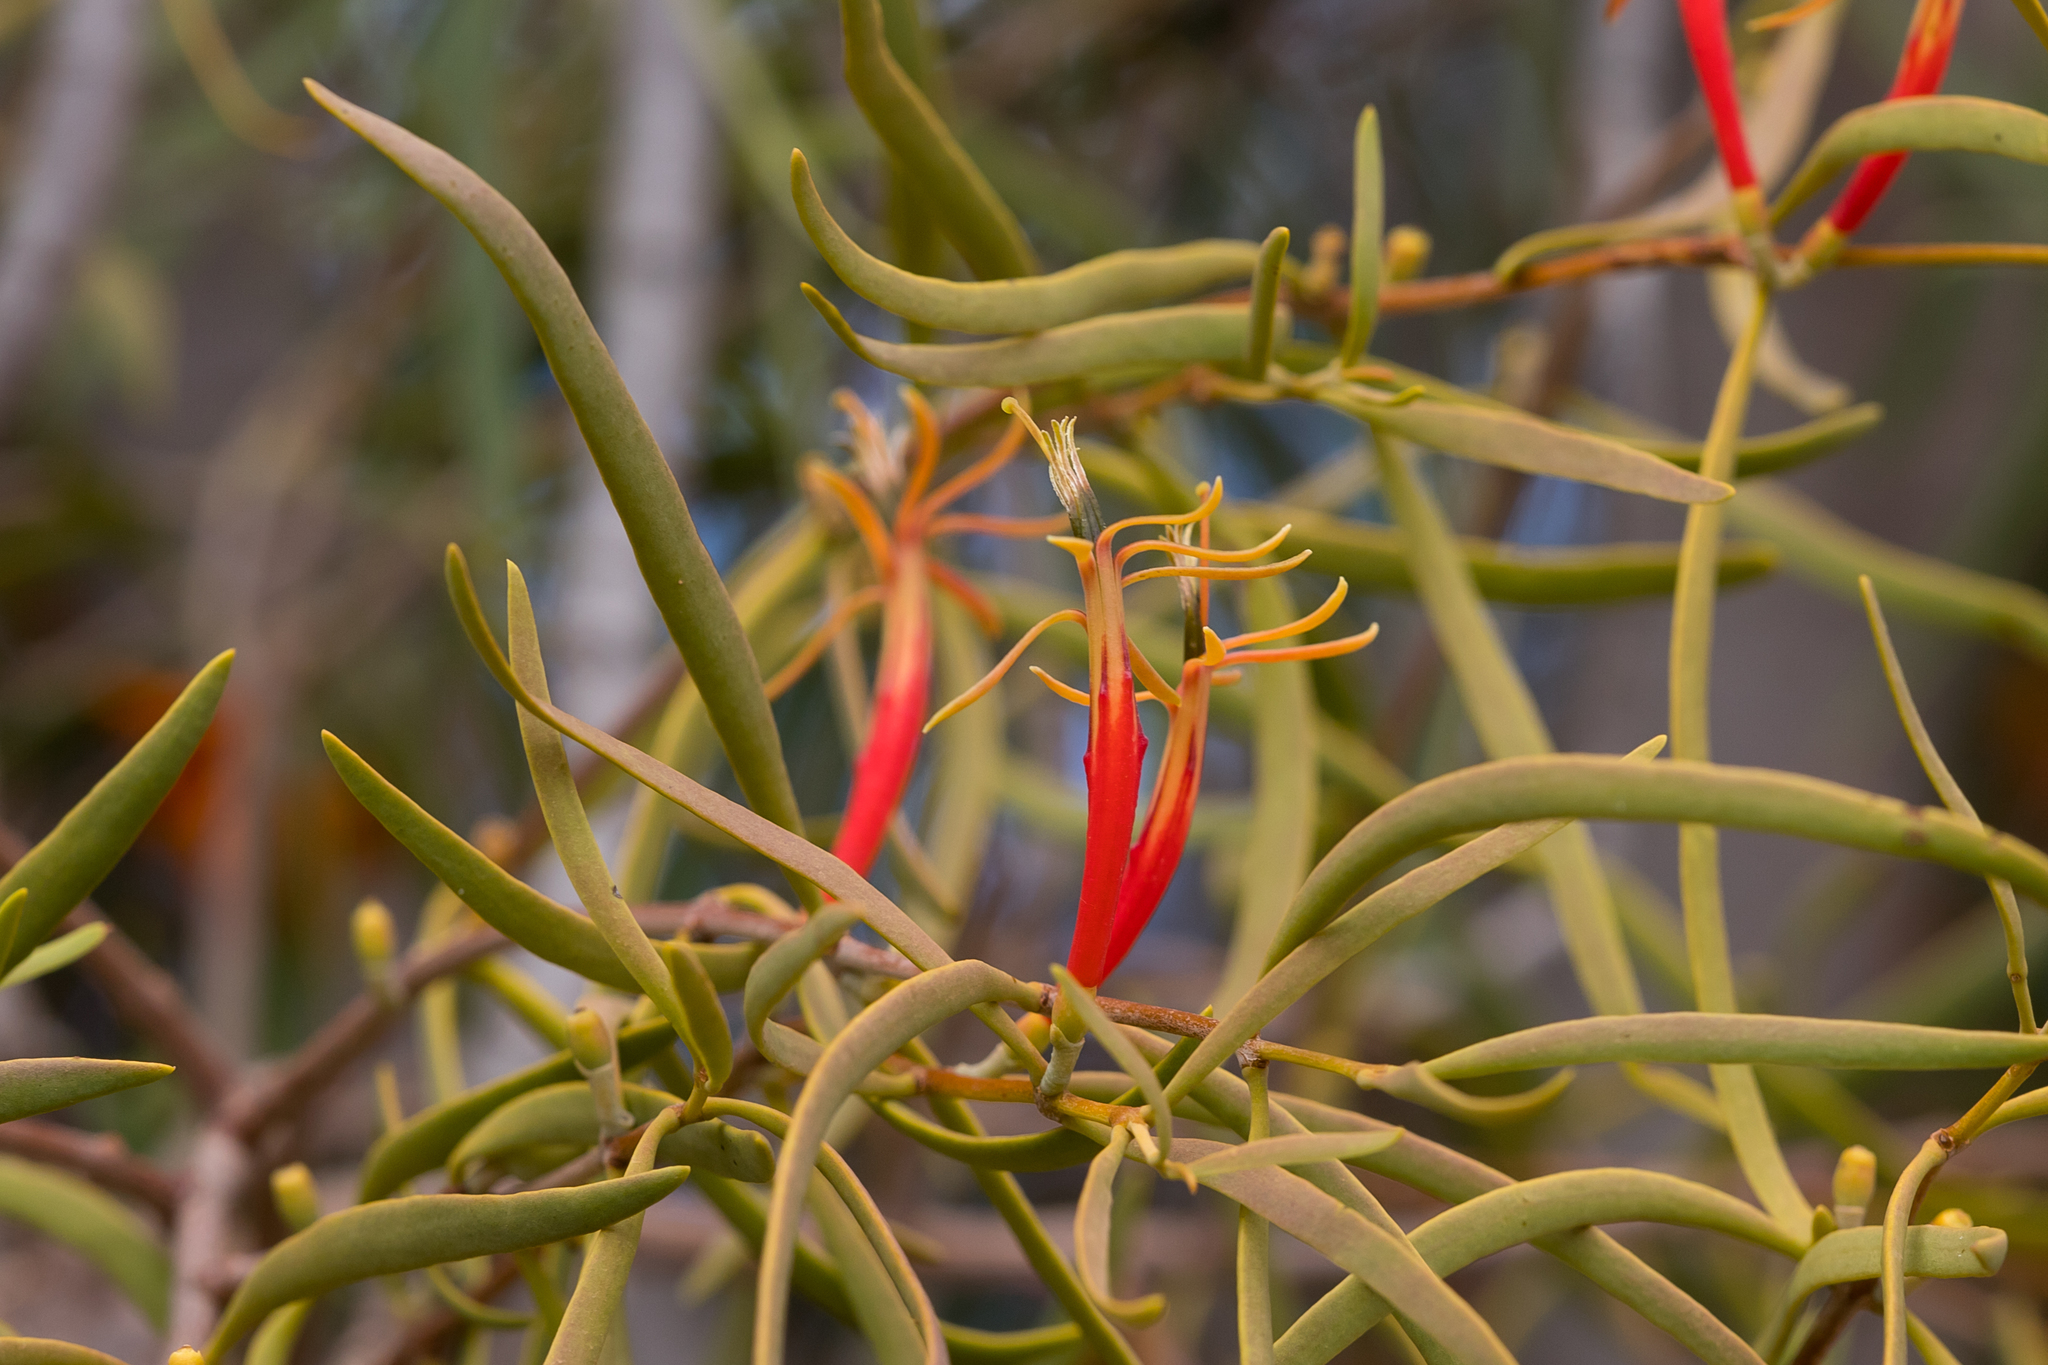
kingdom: Plantae
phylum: Tracheophyta
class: Magnoliopsida
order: Santalales
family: Loranthaceae
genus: Lysiana
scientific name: Lysiana exocarpi
